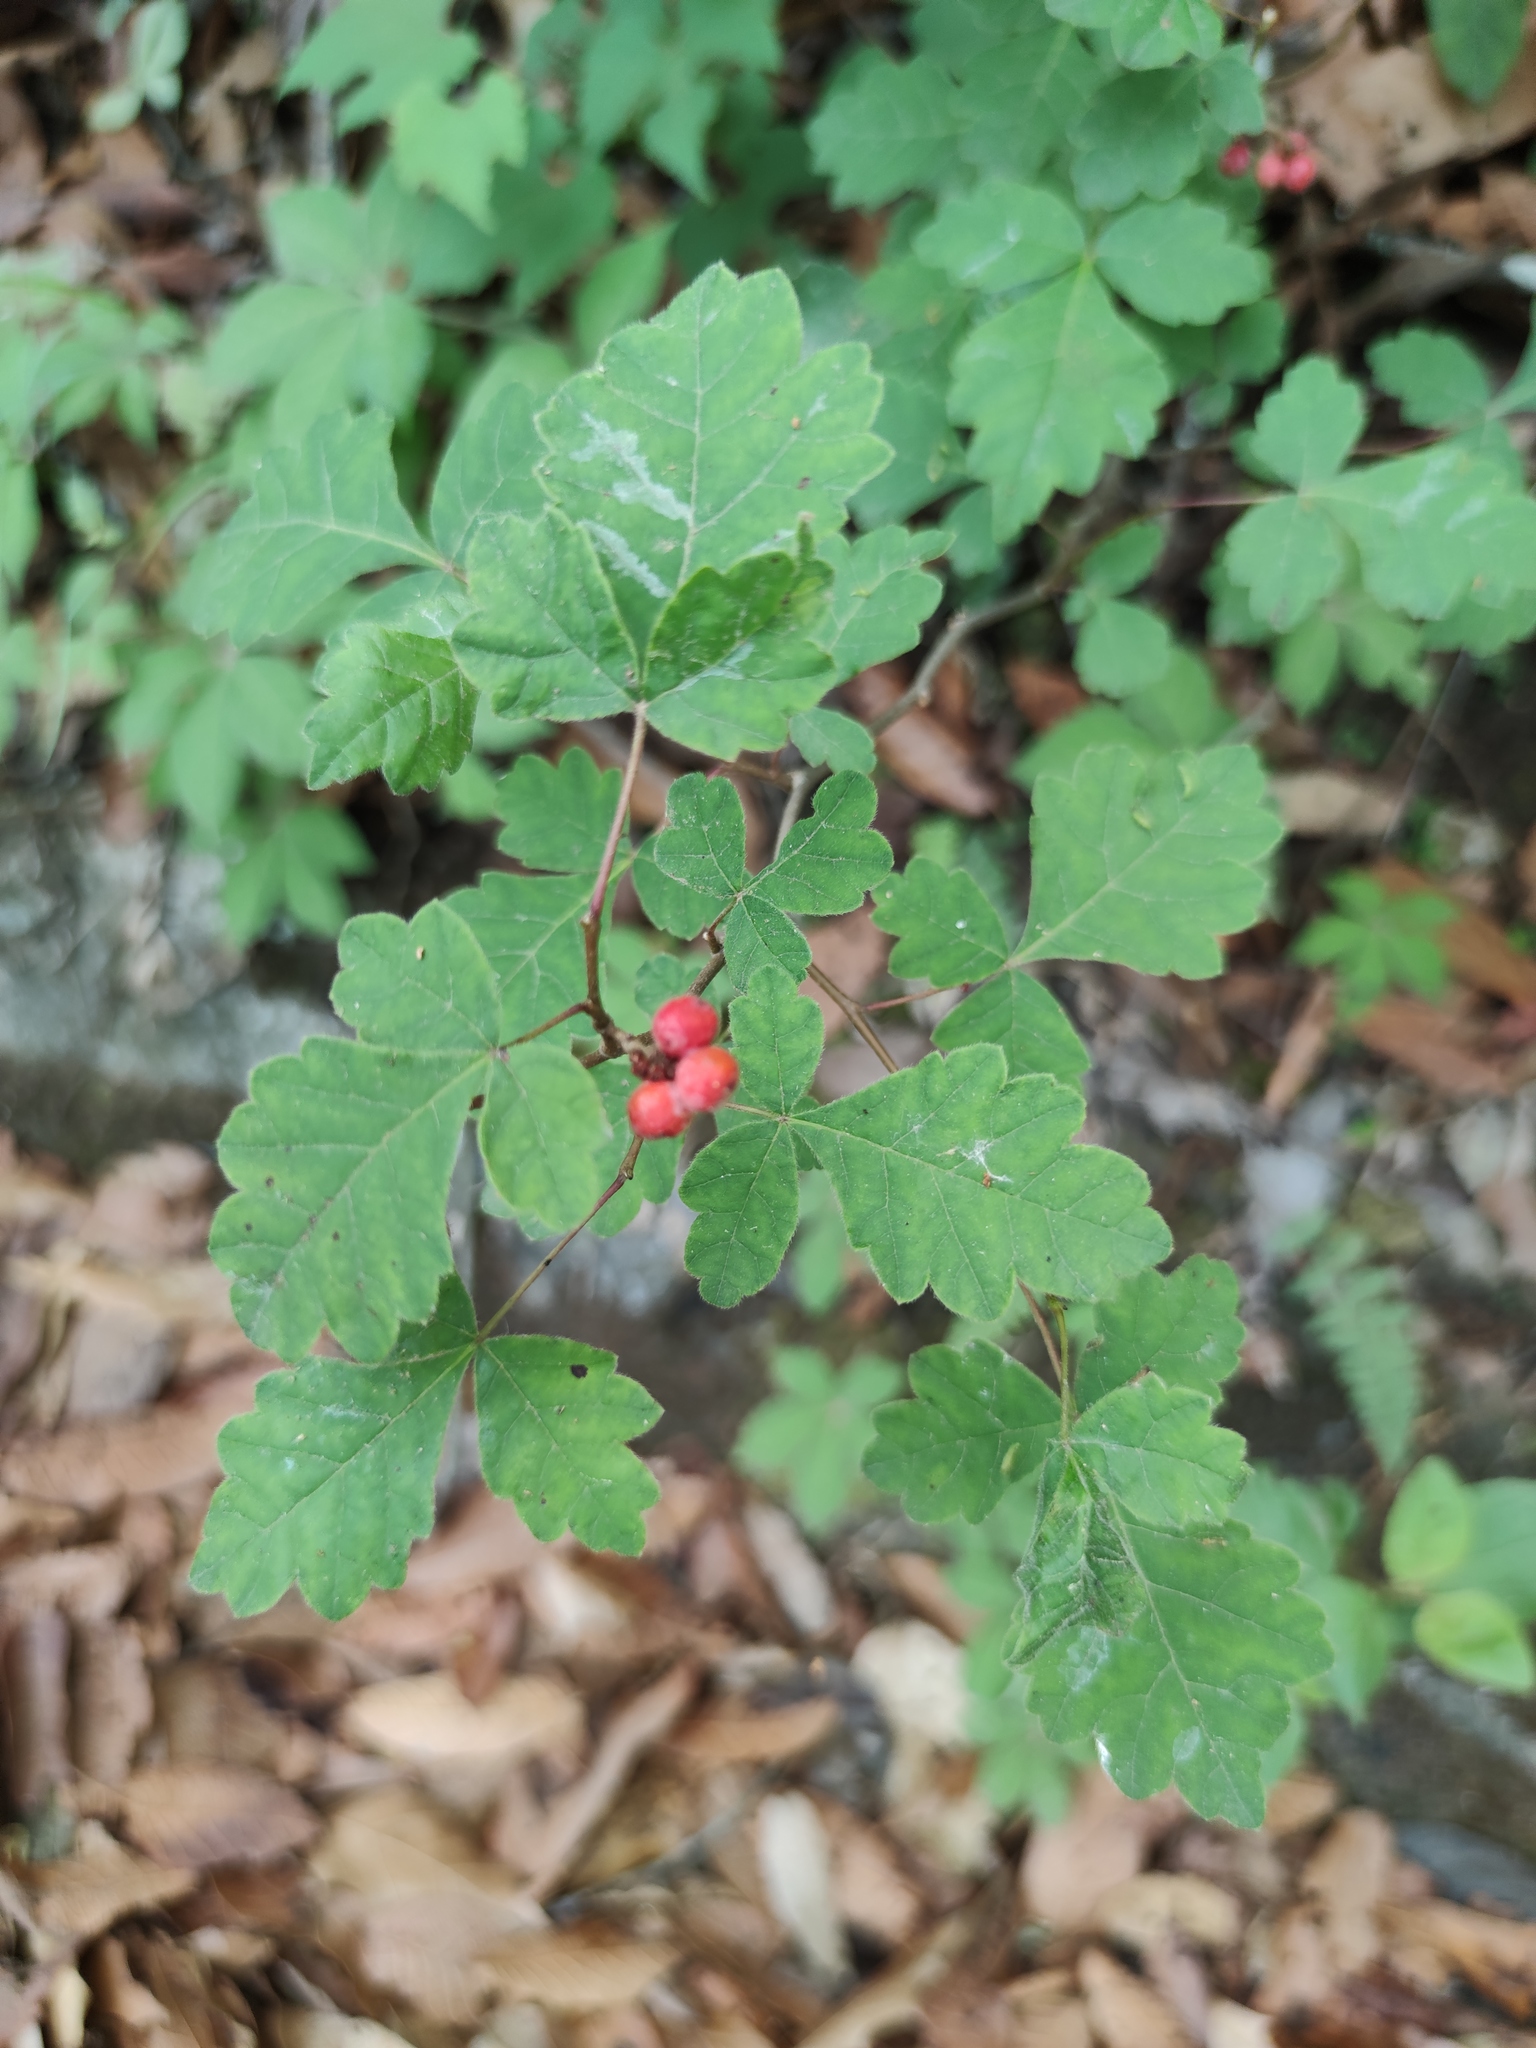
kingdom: Plantae
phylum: Tracheophyta
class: Magnoliopsida
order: Sapindales
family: Anacardiaceae
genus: Rhus
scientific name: Rhus aromatica
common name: Aromatic sumac
